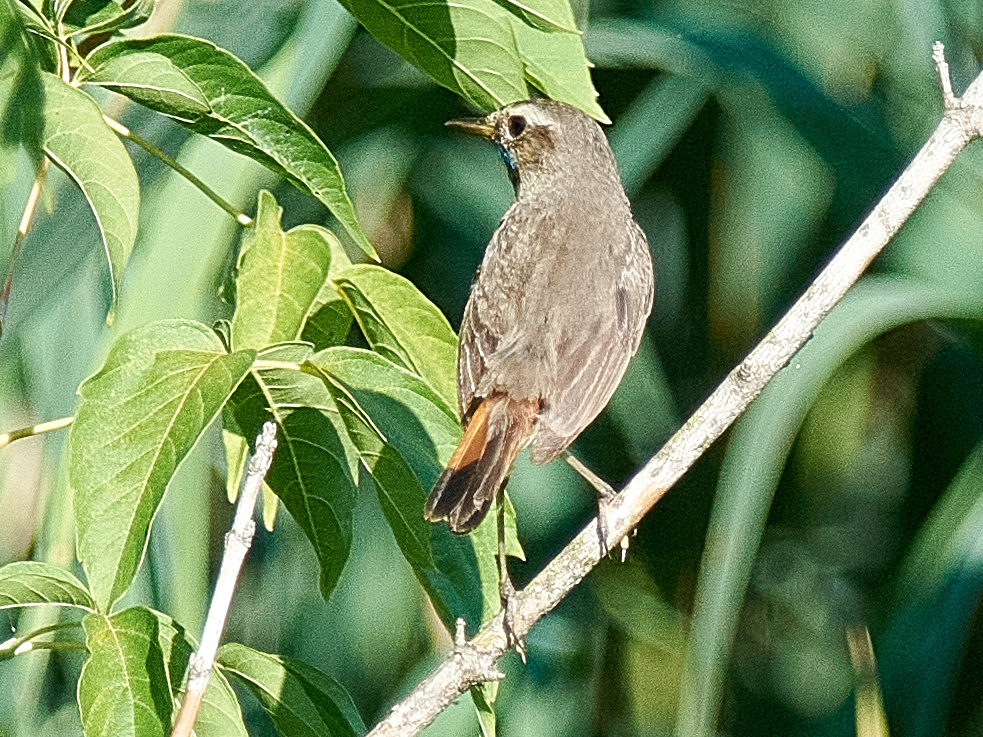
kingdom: Animalia
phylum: Chordata
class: Aves
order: Passeriformes
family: Muscicapidae
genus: Luscinia
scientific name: Luscinia svecica
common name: Bluethroat
